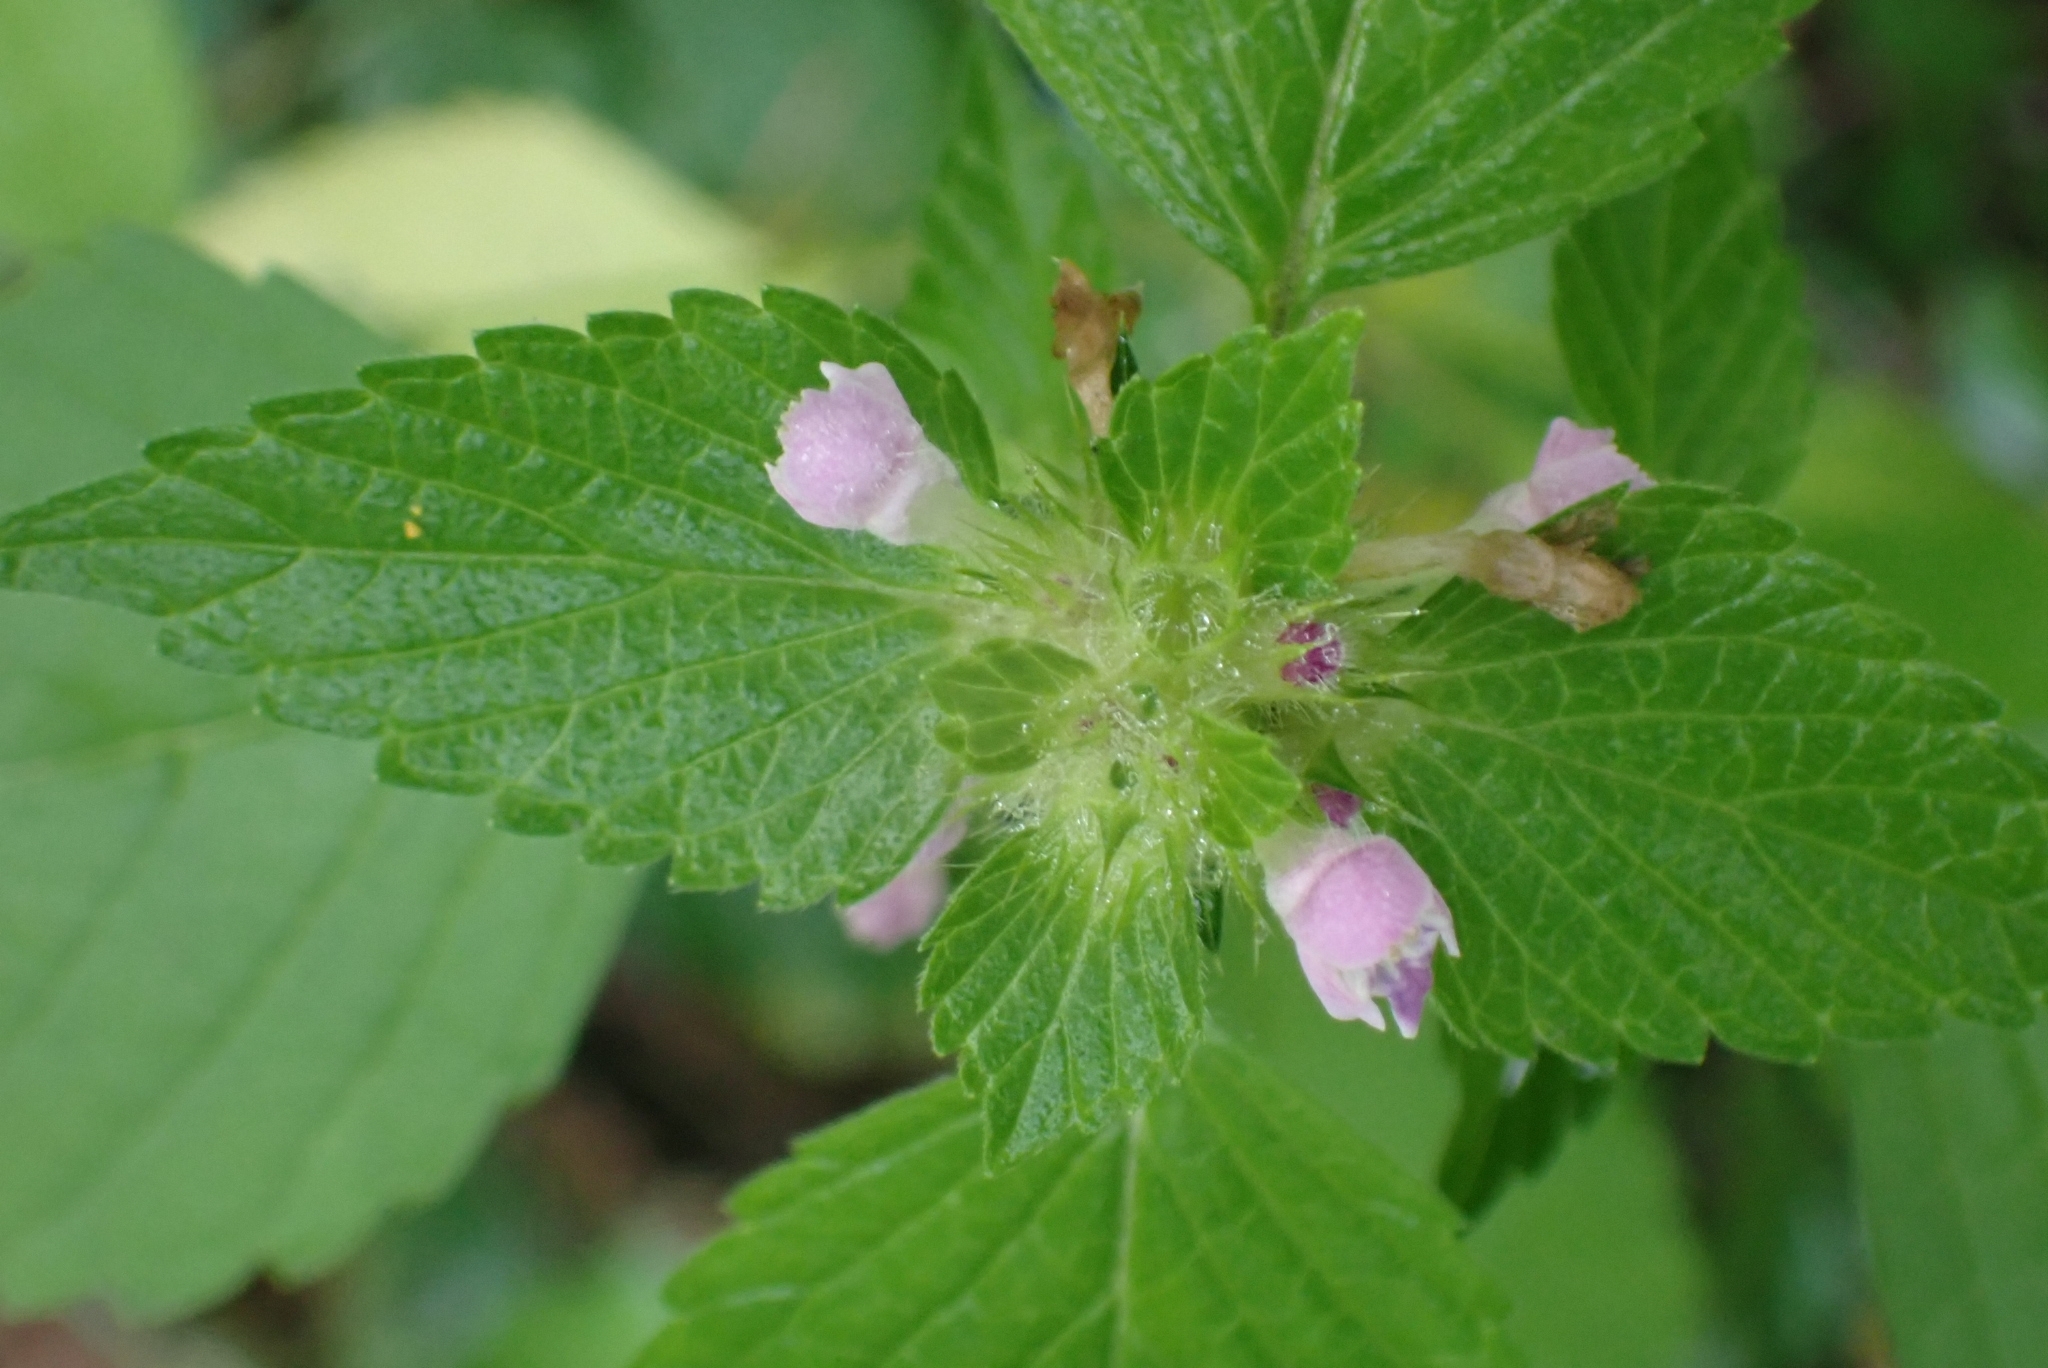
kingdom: Plantae
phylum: Tracheophyta
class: Magnoliopsida
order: Lamiales
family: Lamiaceae
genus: Galeopsis
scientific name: Galeopsis bifida
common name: Bifid hemp-nettle
